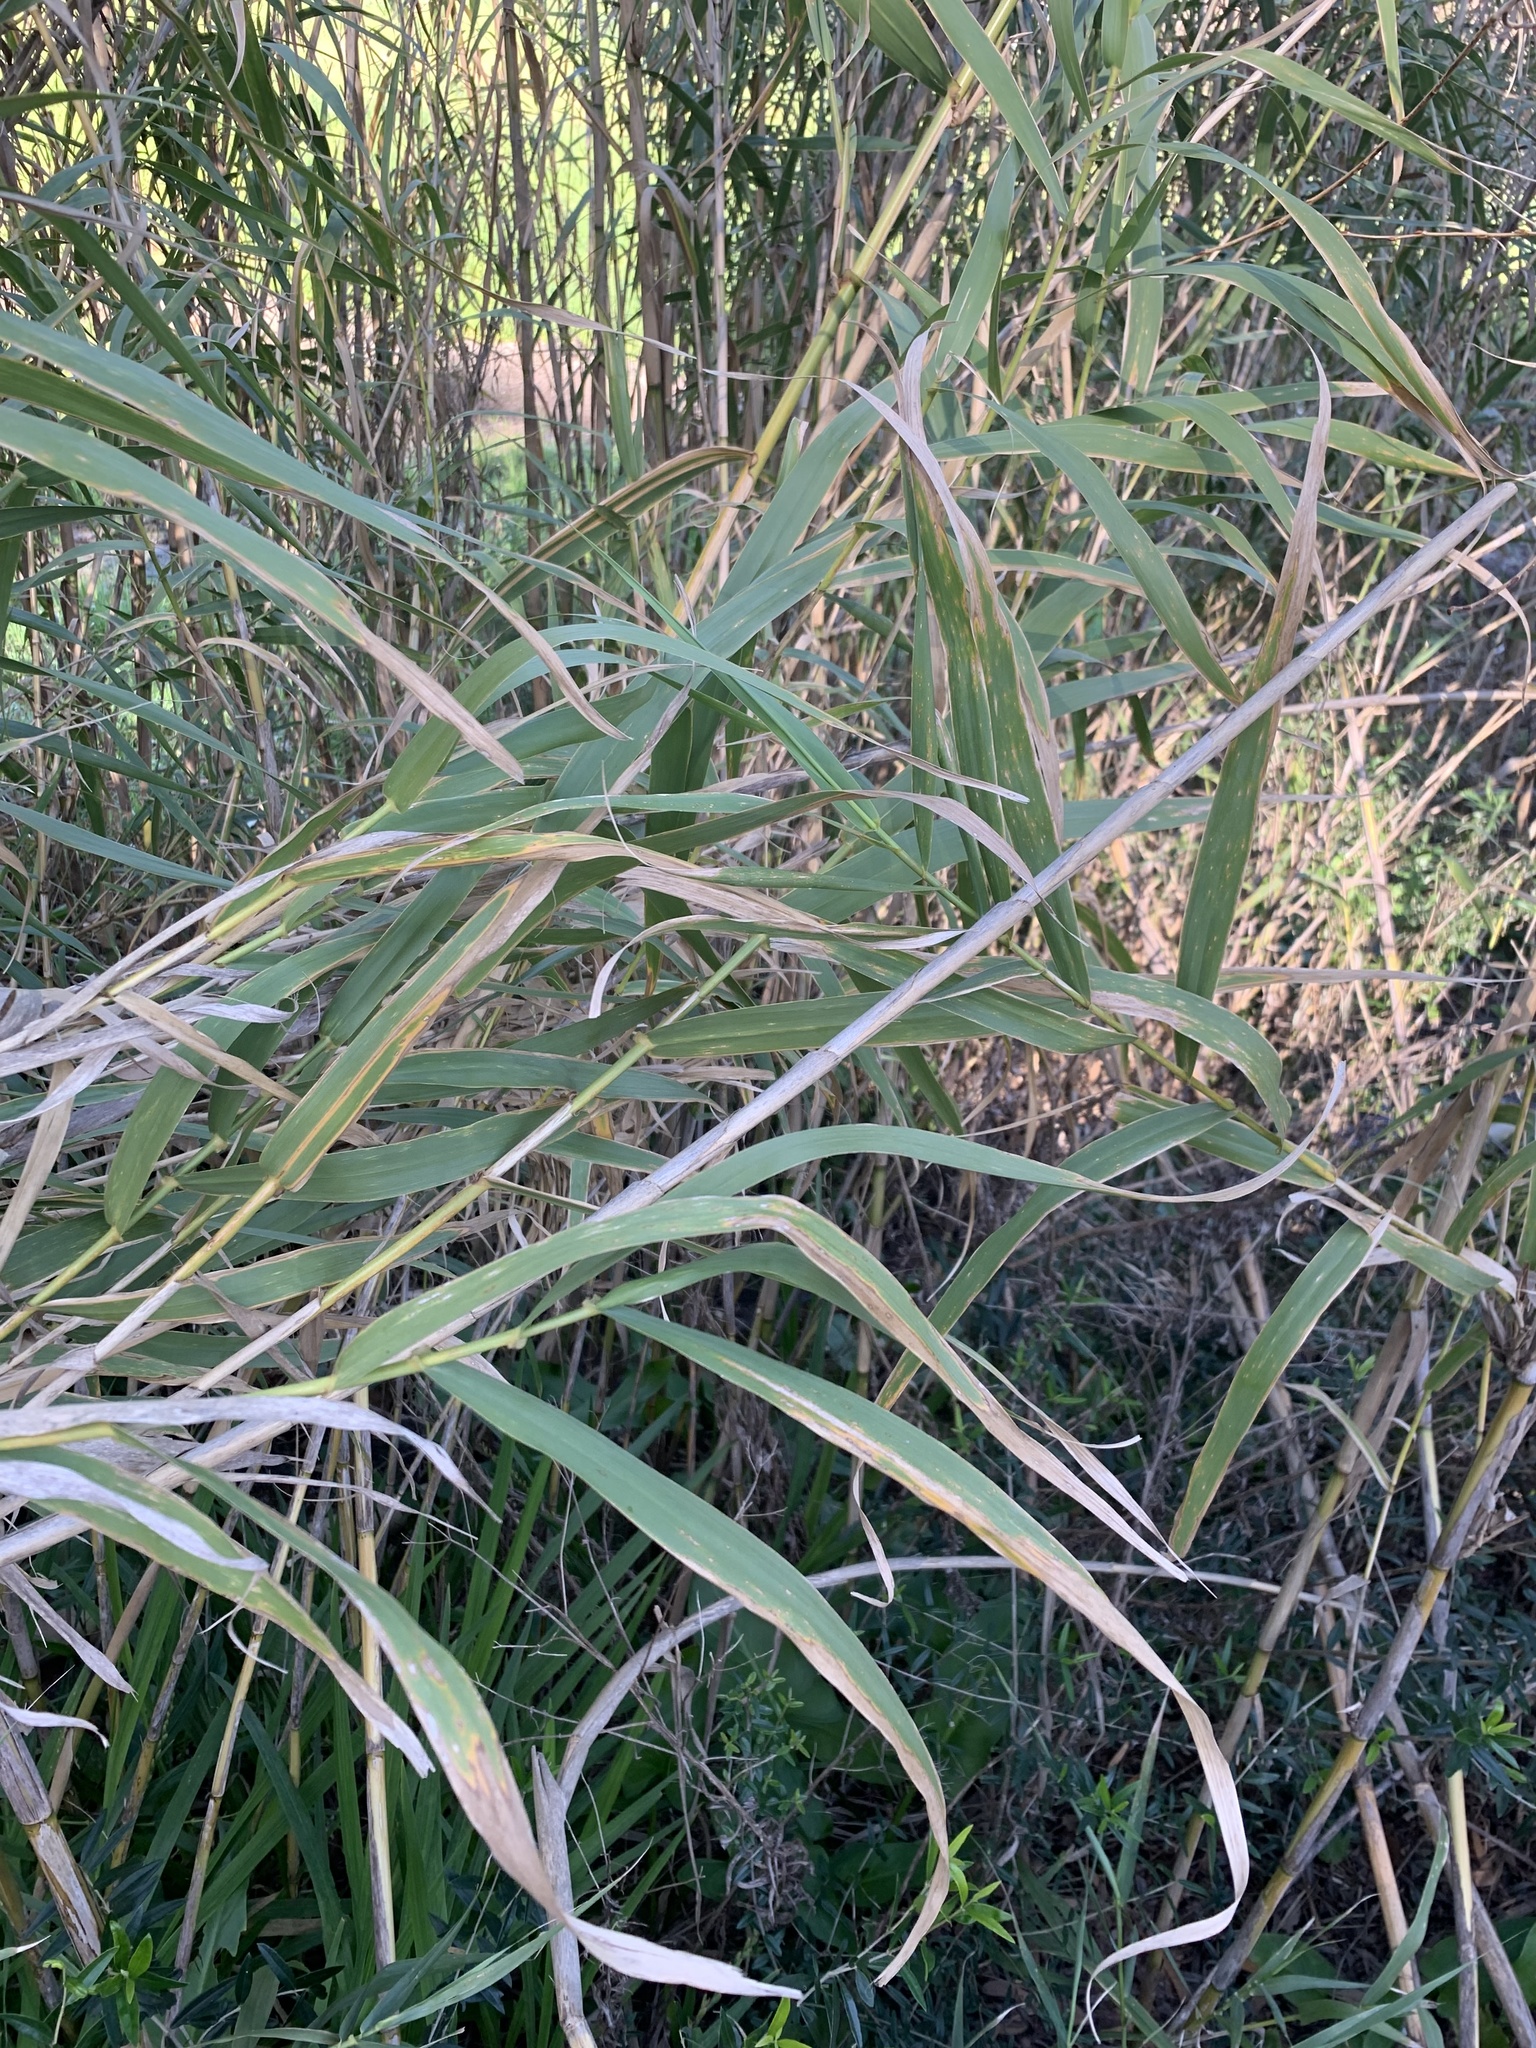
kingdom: Plantae
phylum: Tracheophyta
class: Liliopsida
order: Poales
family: Poaceae
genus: Arundo
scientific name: Arundo donax
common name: Giant reed
